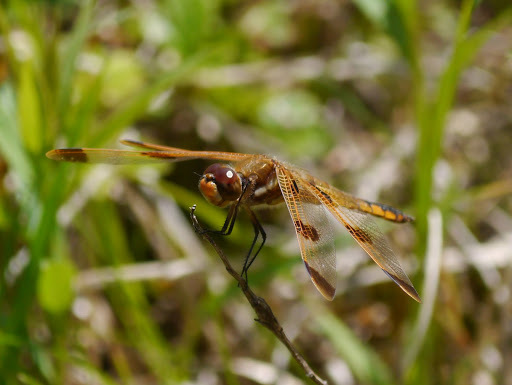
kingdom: Animalia
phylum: Arthropoda
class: Insecta
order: Odonata
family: Libellulidae
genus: Libellula
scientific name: Libellula semifasciata
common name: Painted skimmer
